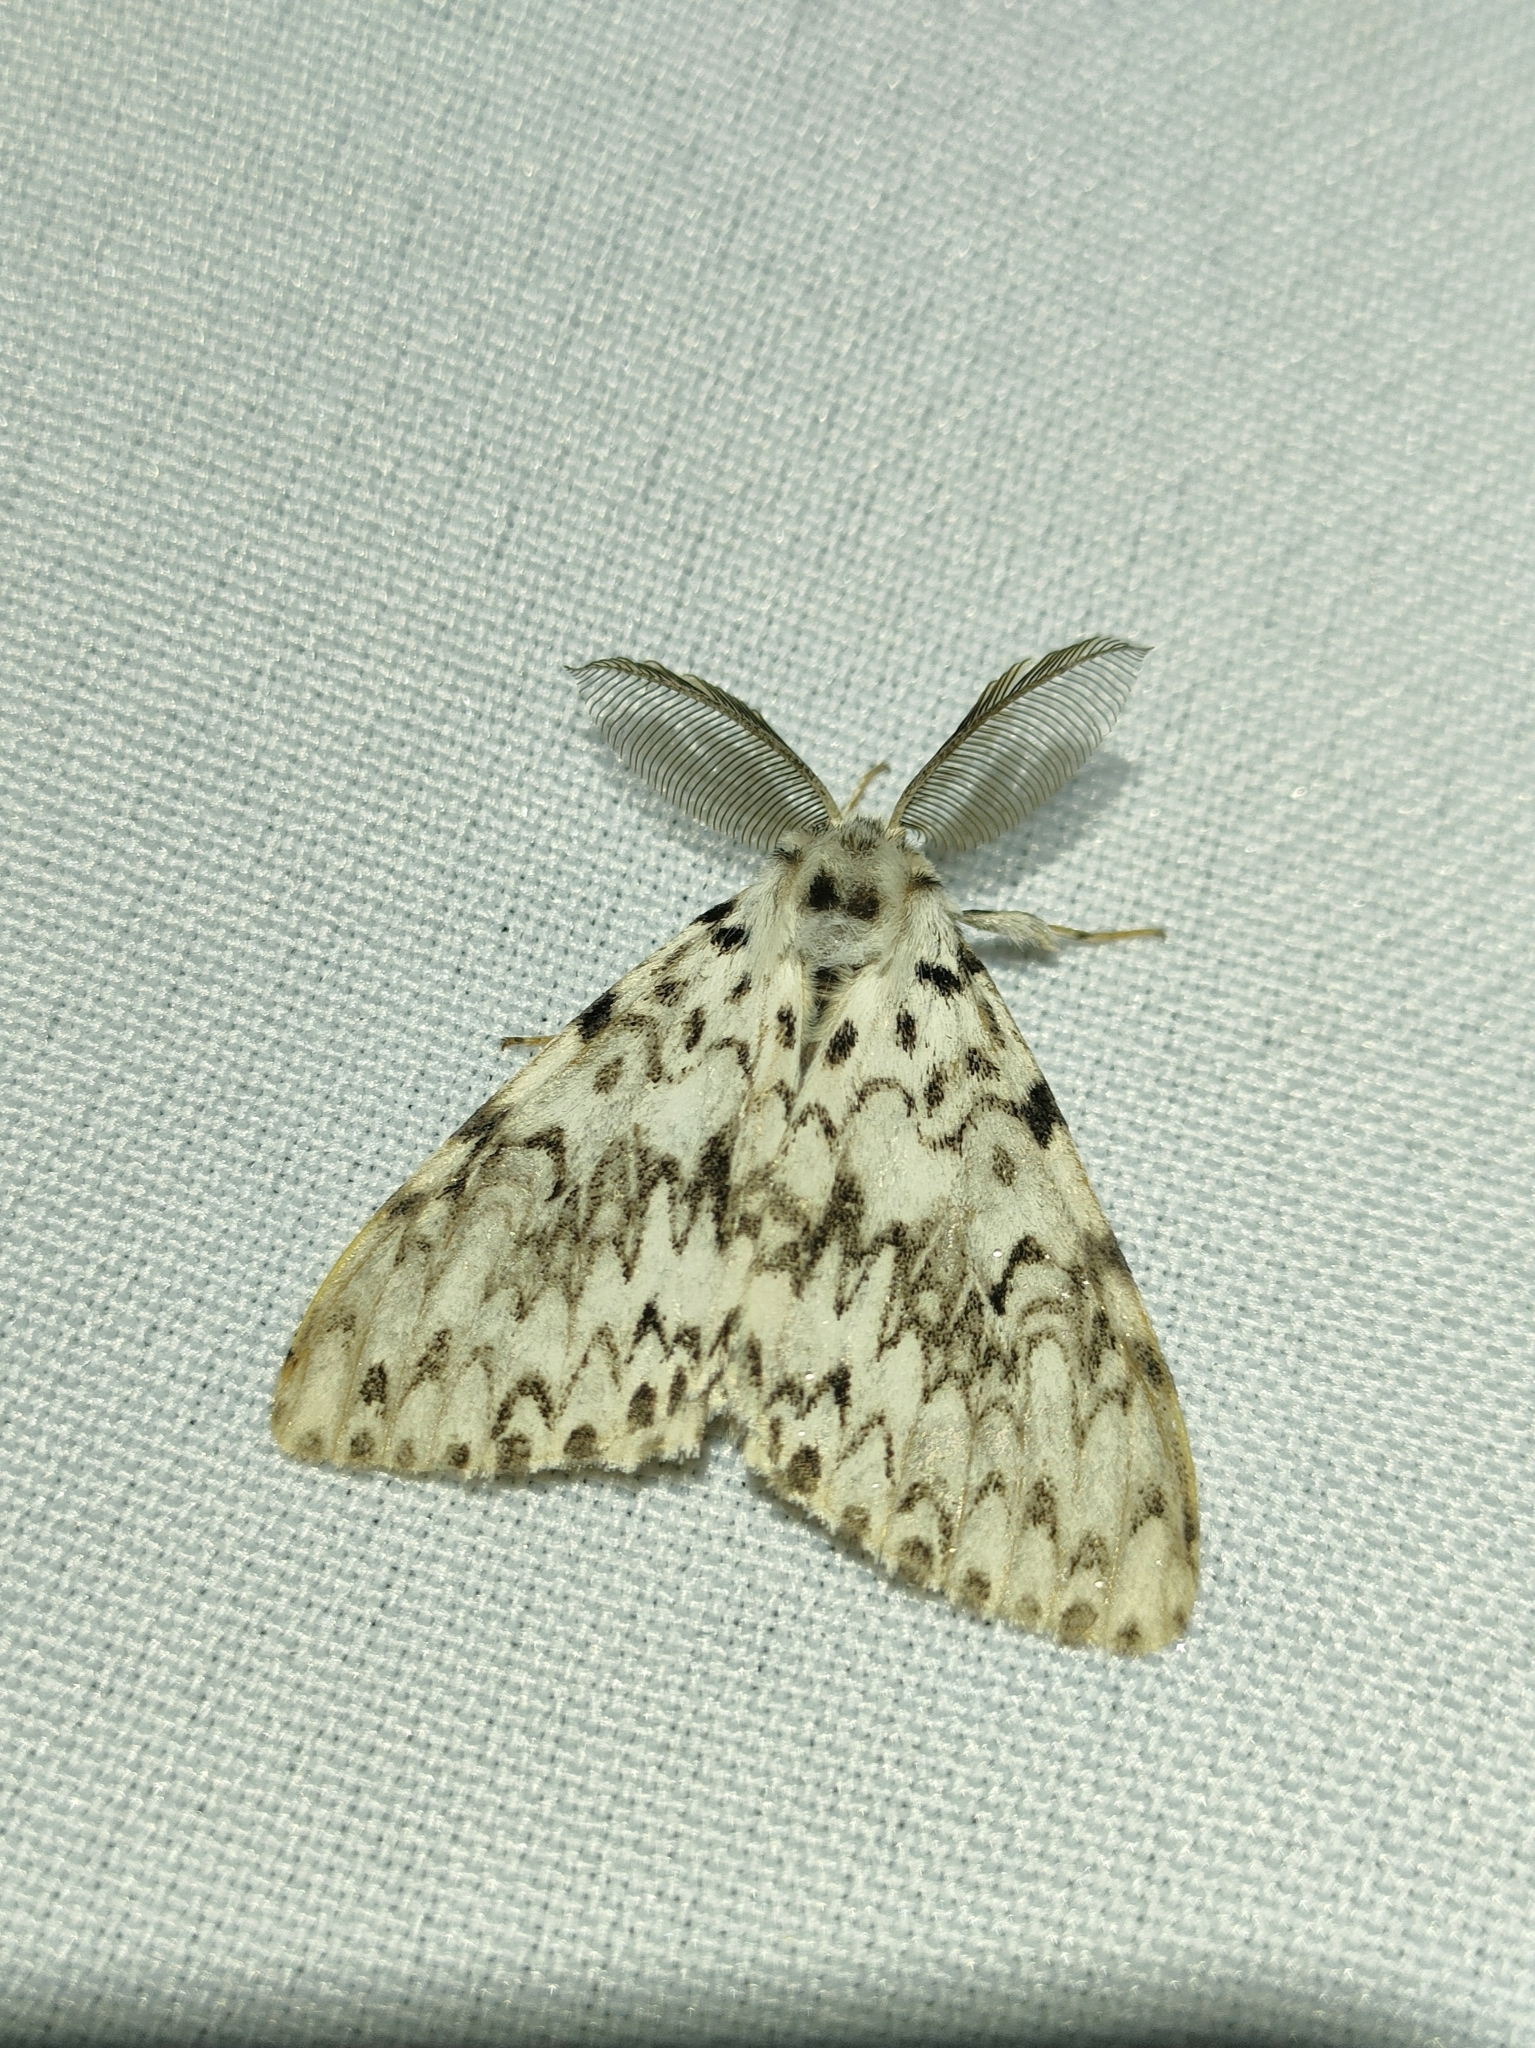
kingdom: Animalia
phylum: Arthropoda
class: Insecta
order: Lepidoptera
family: Erebidae
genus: Lymantria
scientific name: Lymantria monacha
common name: Black arches
